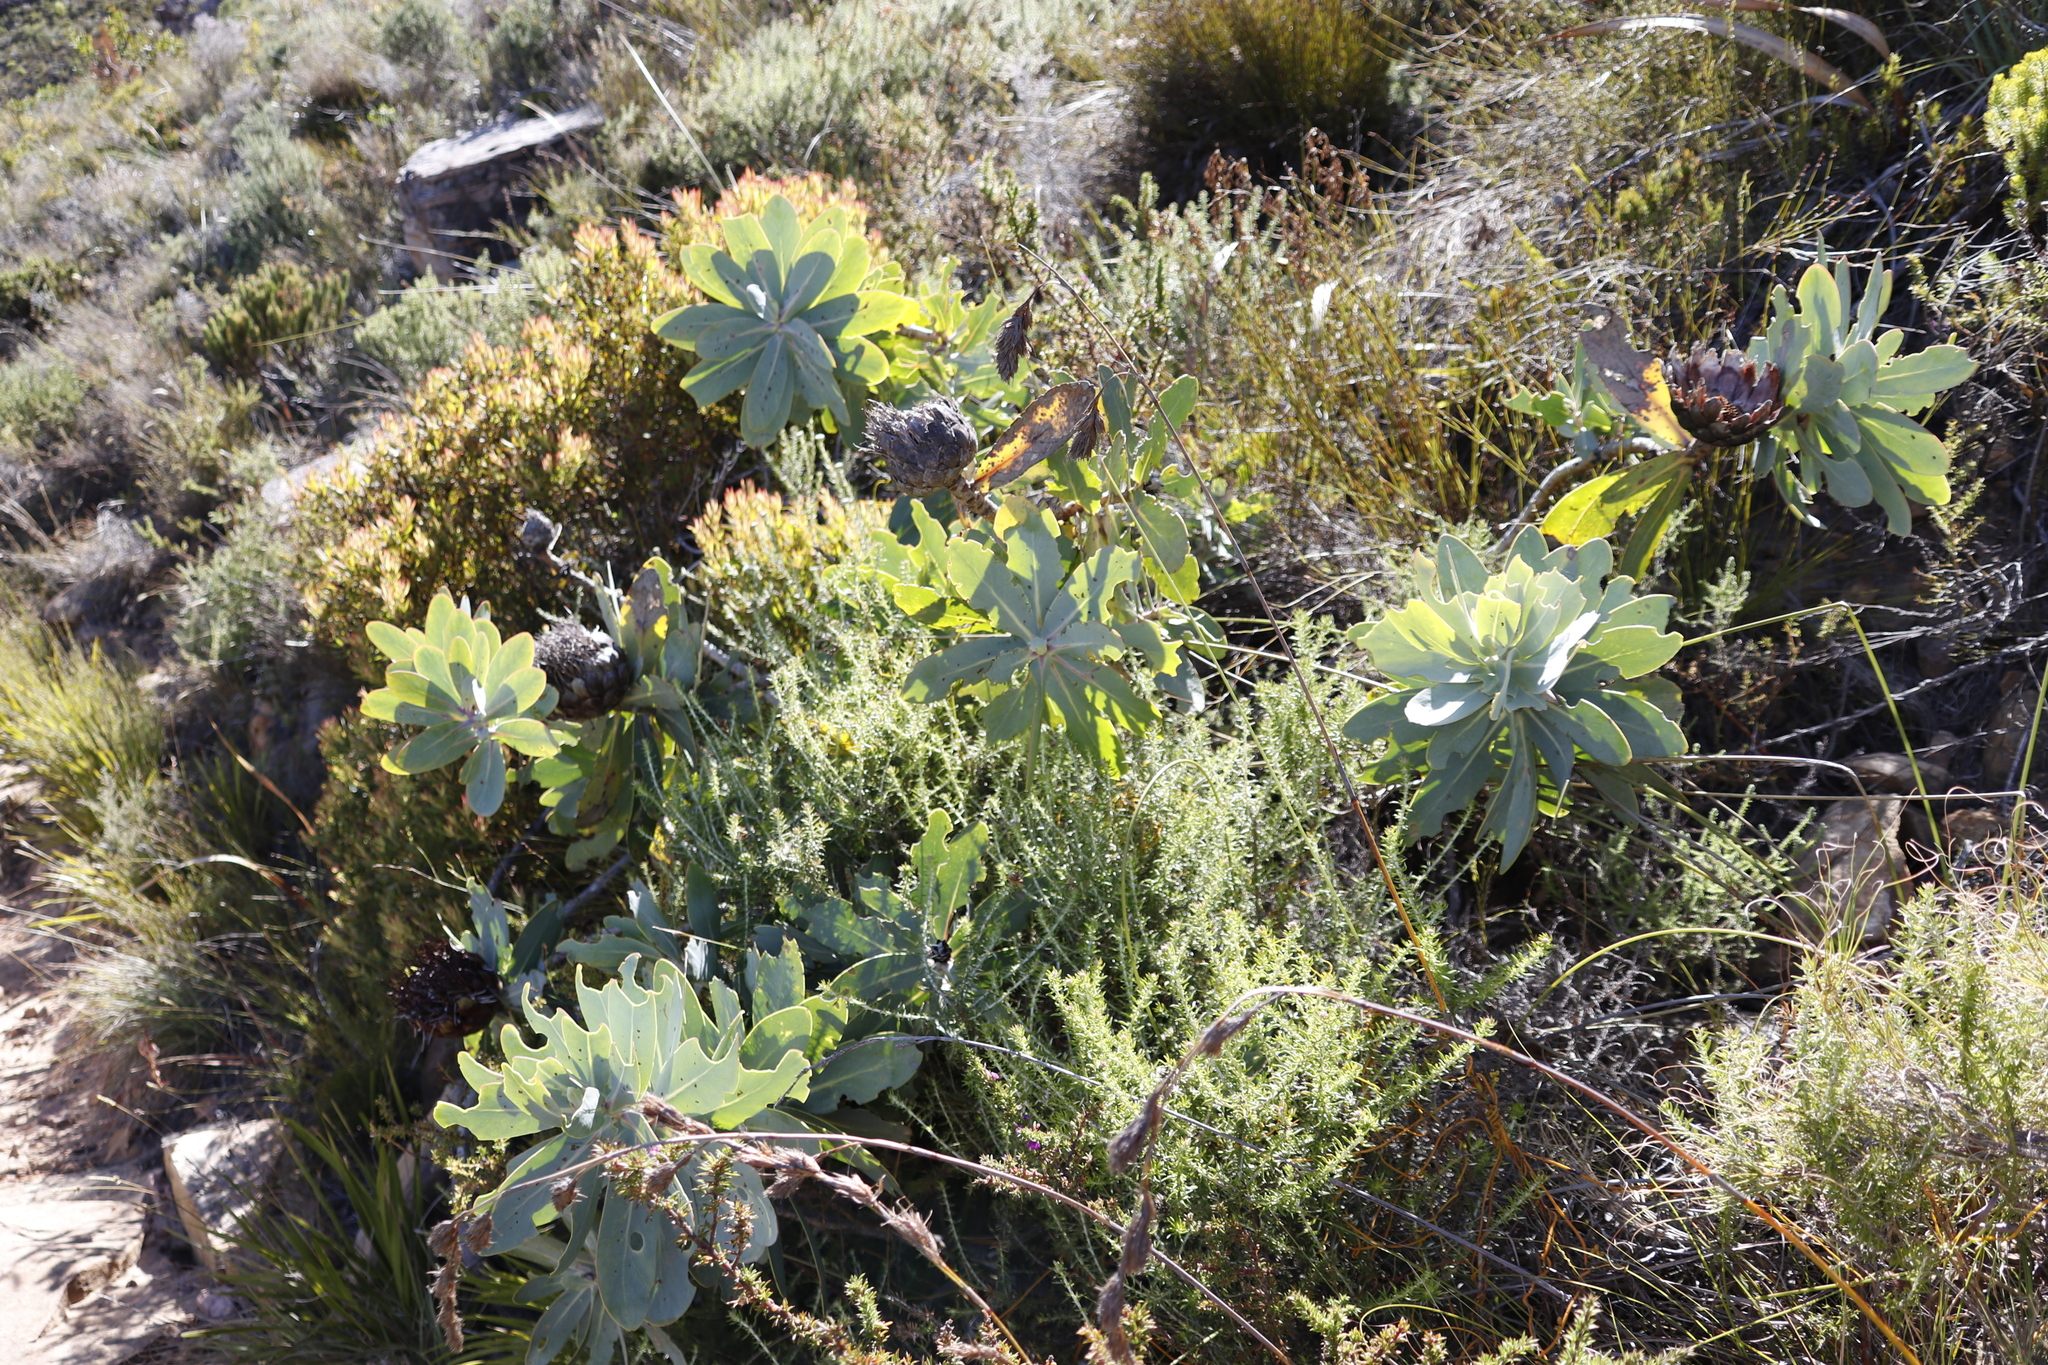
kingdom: Plantae
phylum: Tracheophyta
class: Magnoliopsida
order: Proteales
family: Proteaceae
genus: Protea
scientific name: Protea nitida
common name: Tree protea
